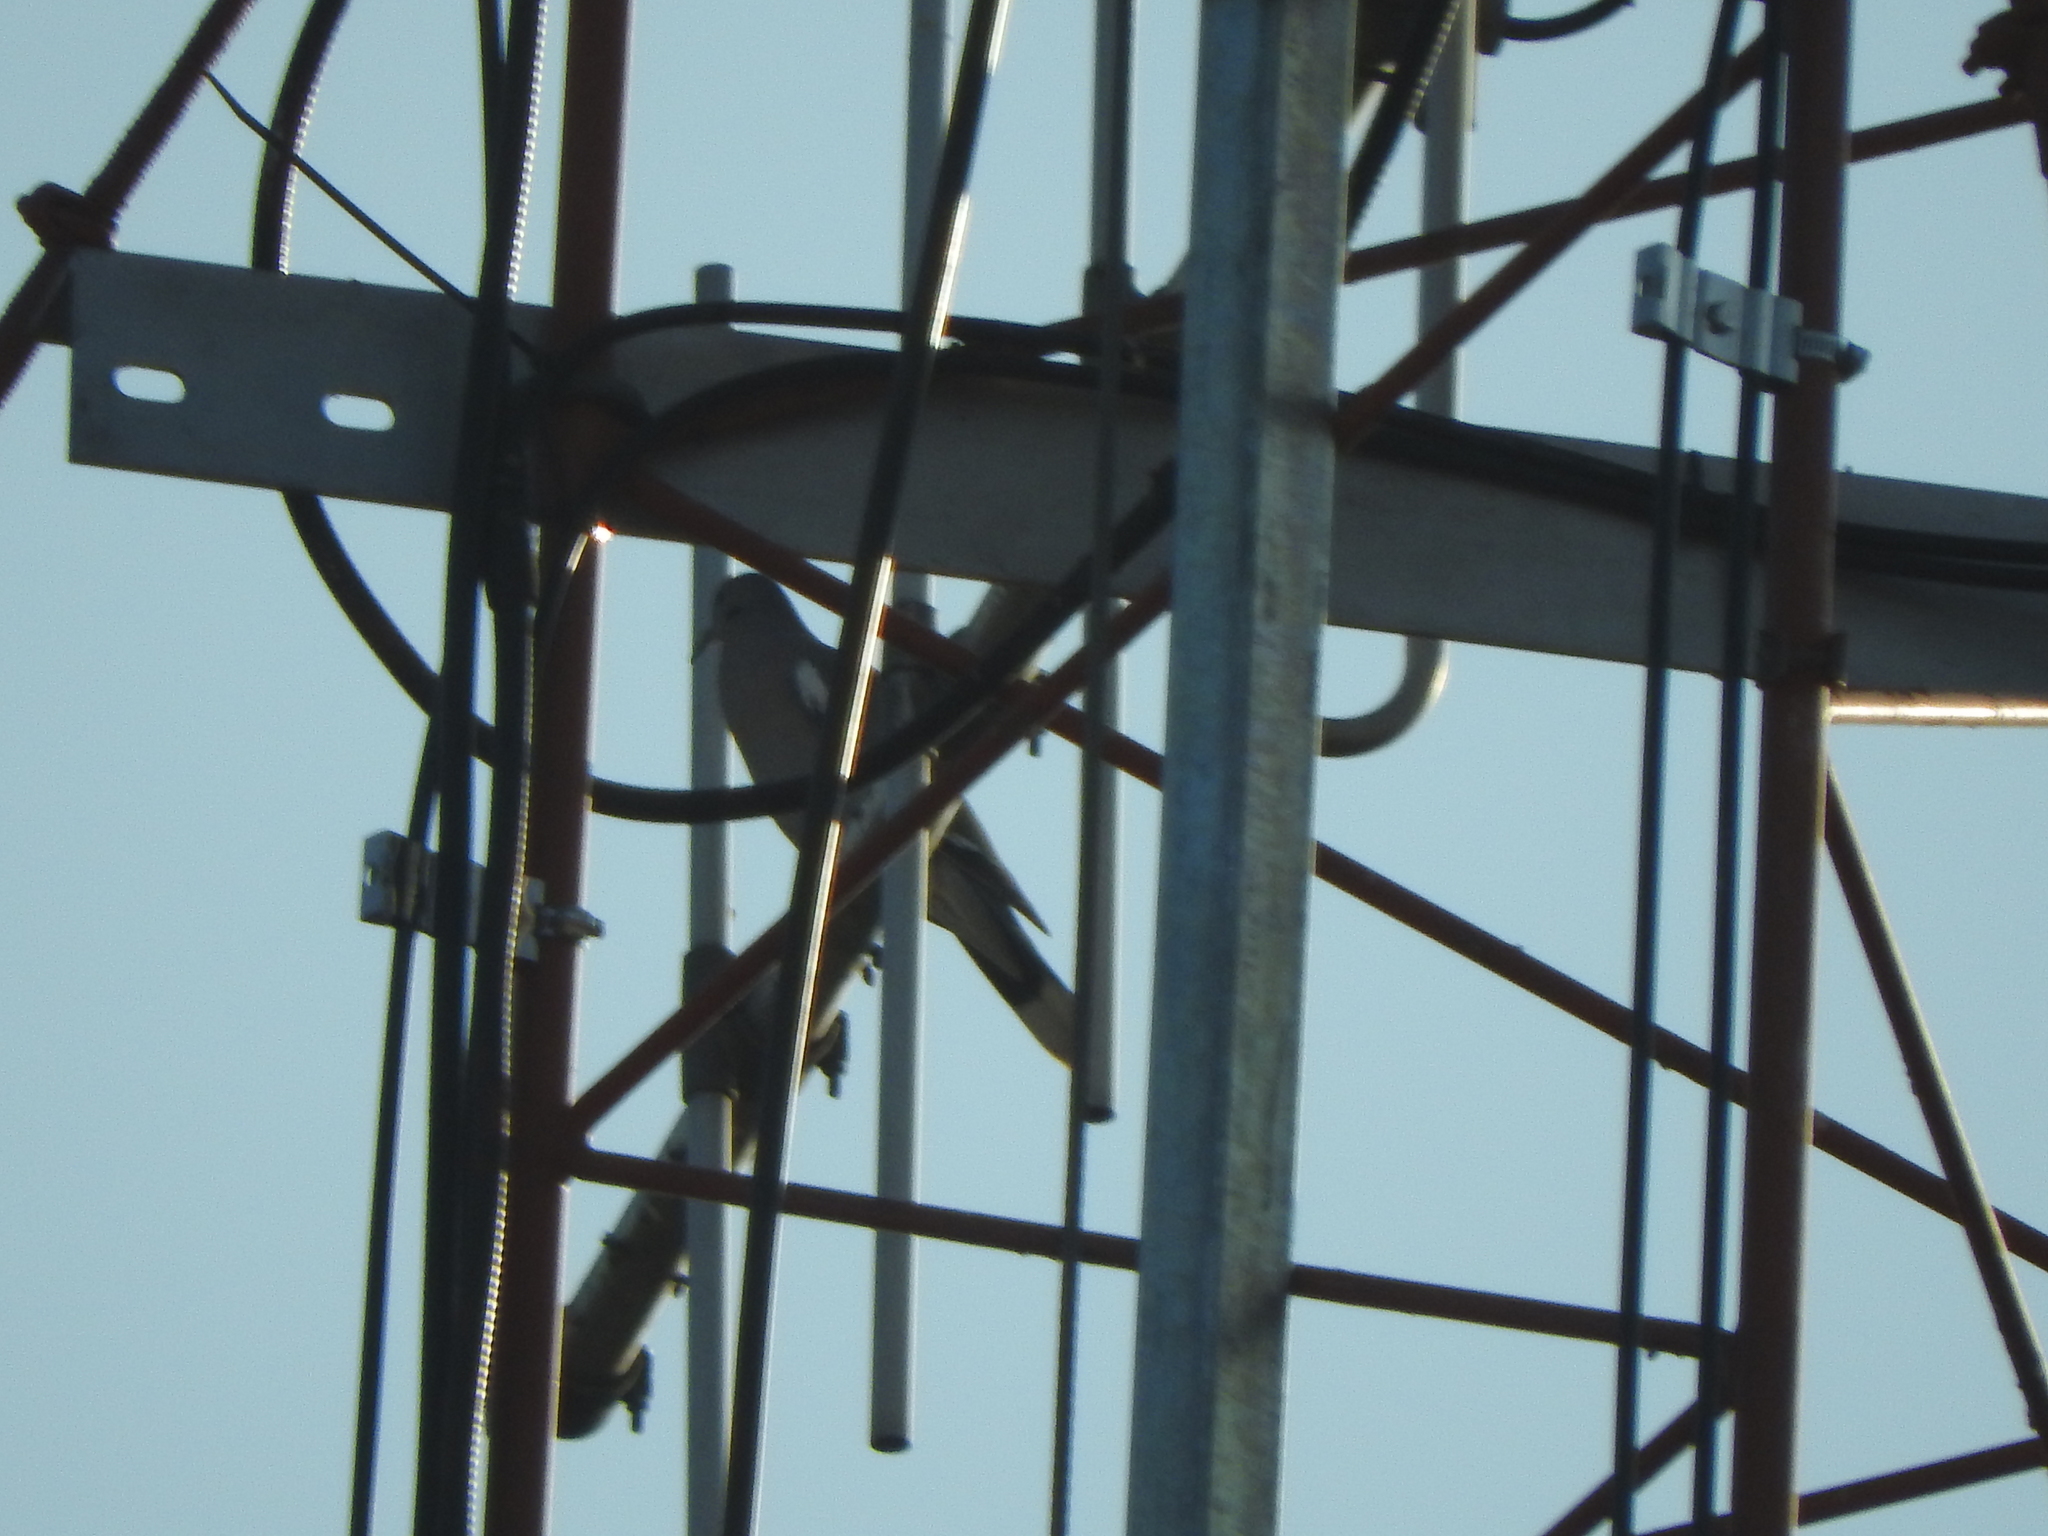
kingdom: Animalia
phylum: Chordata
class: Aves
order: Columbiformes
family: Columbidae
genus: Zenaida
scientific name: Zenaida asiatica
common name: White-winged dove
